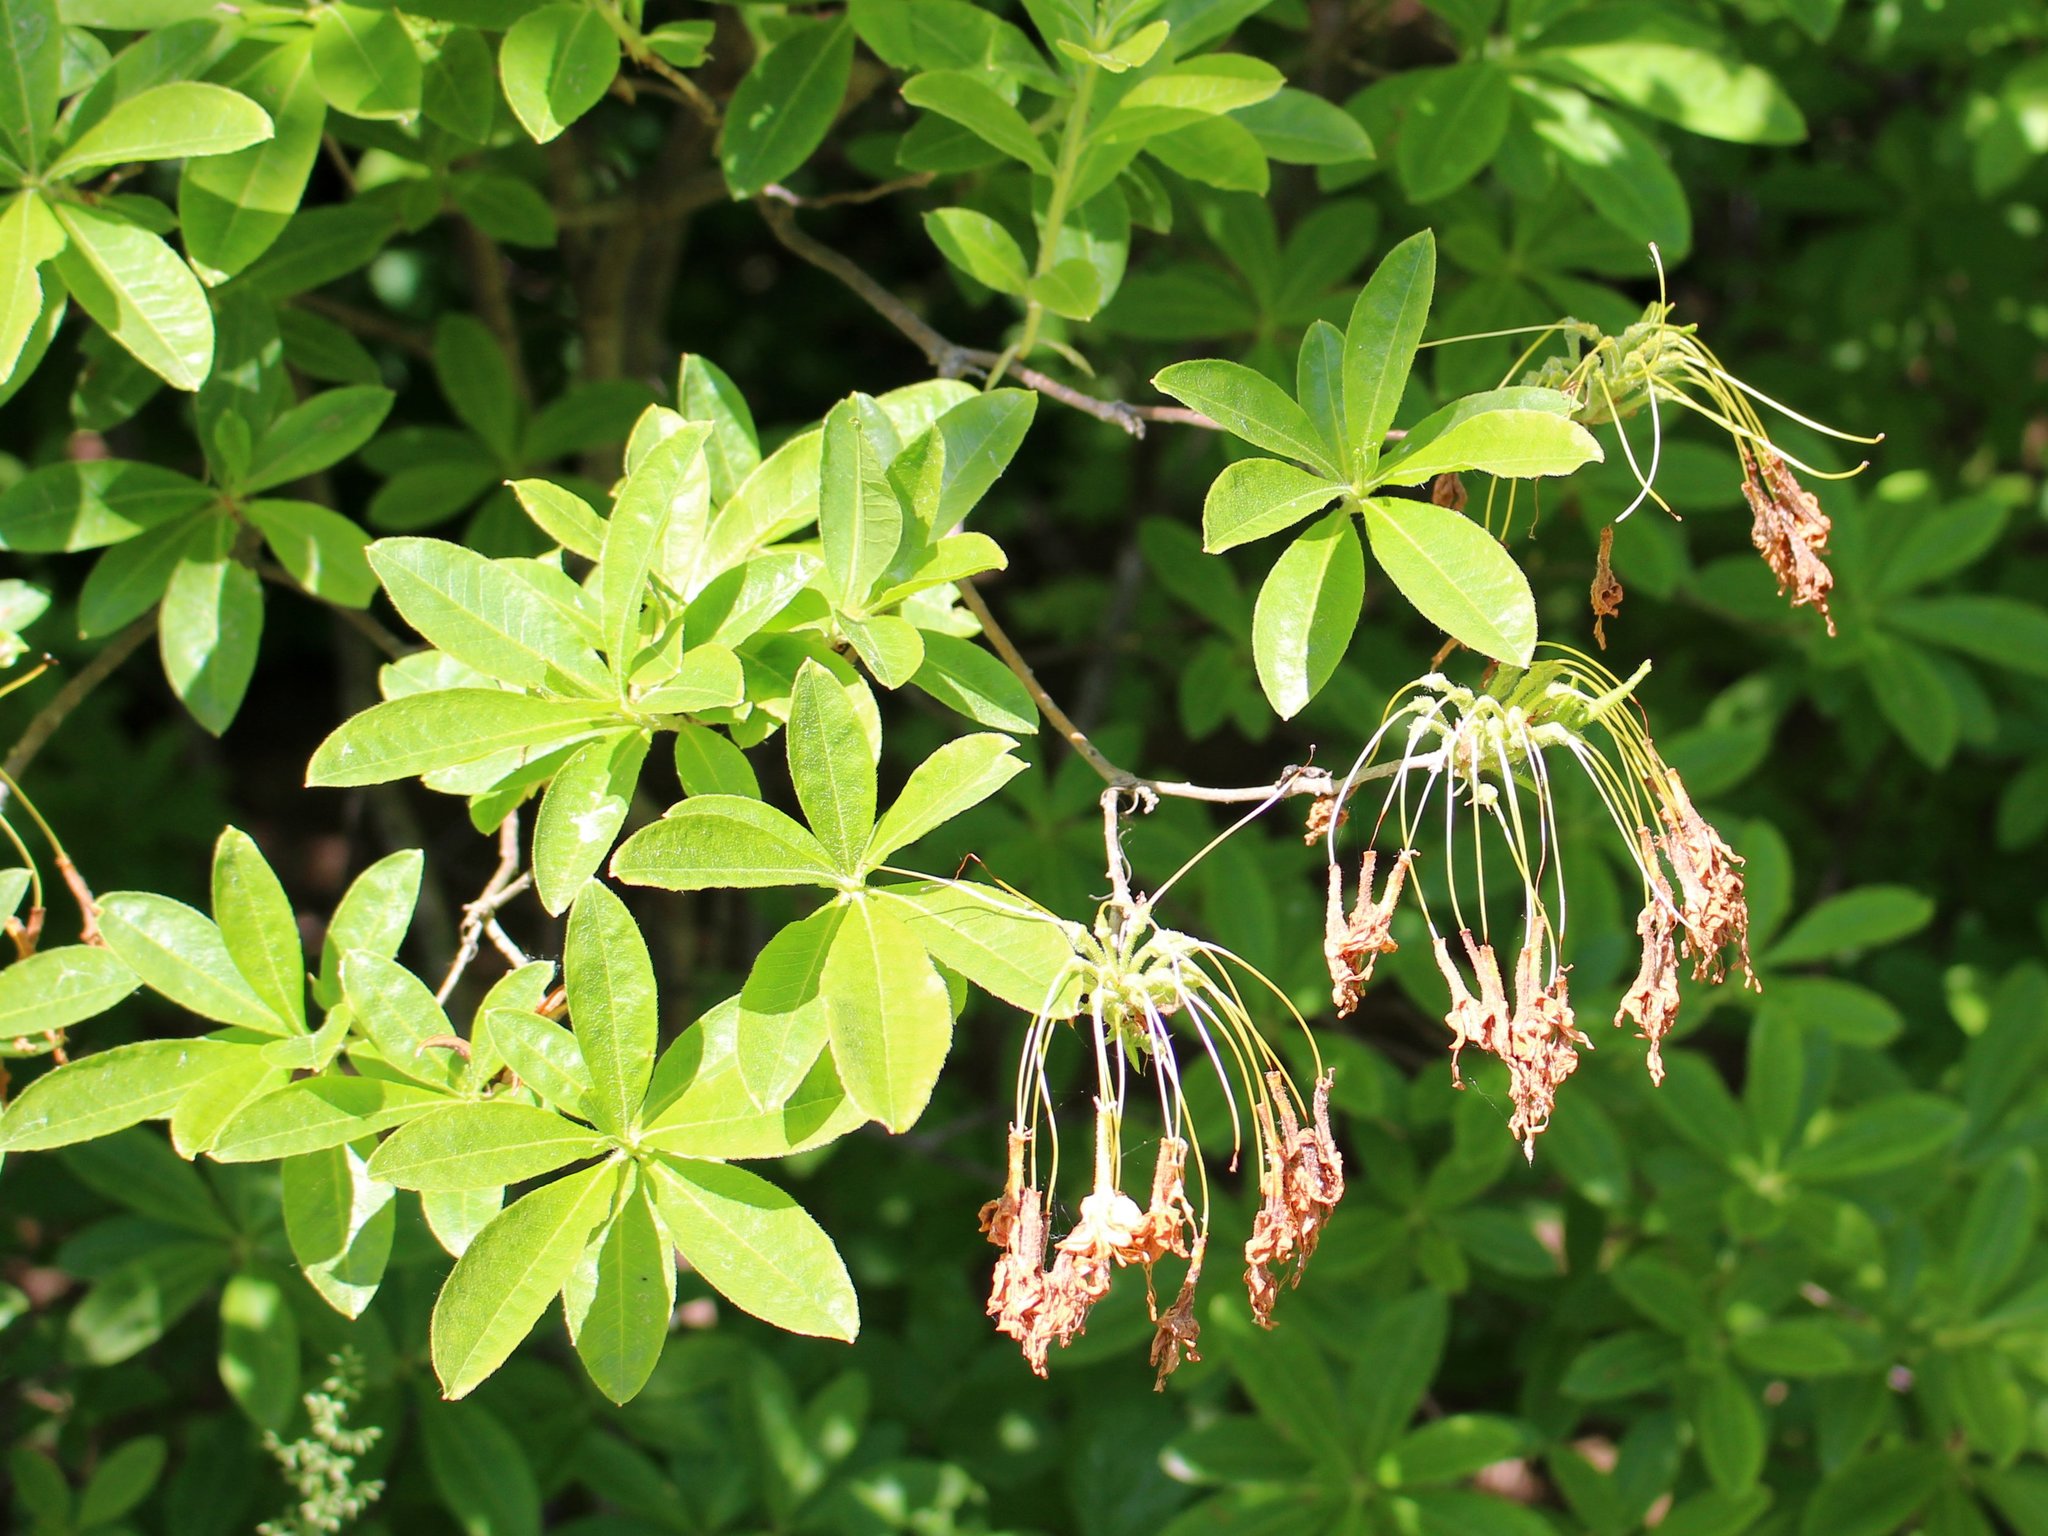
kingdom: Plantae
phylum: Tracheophyta
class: Magnoliopsida
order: Ericales
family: Ericaceae
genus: Rhododendron
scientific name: Rhododendron luteum
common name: Yellow azalea
